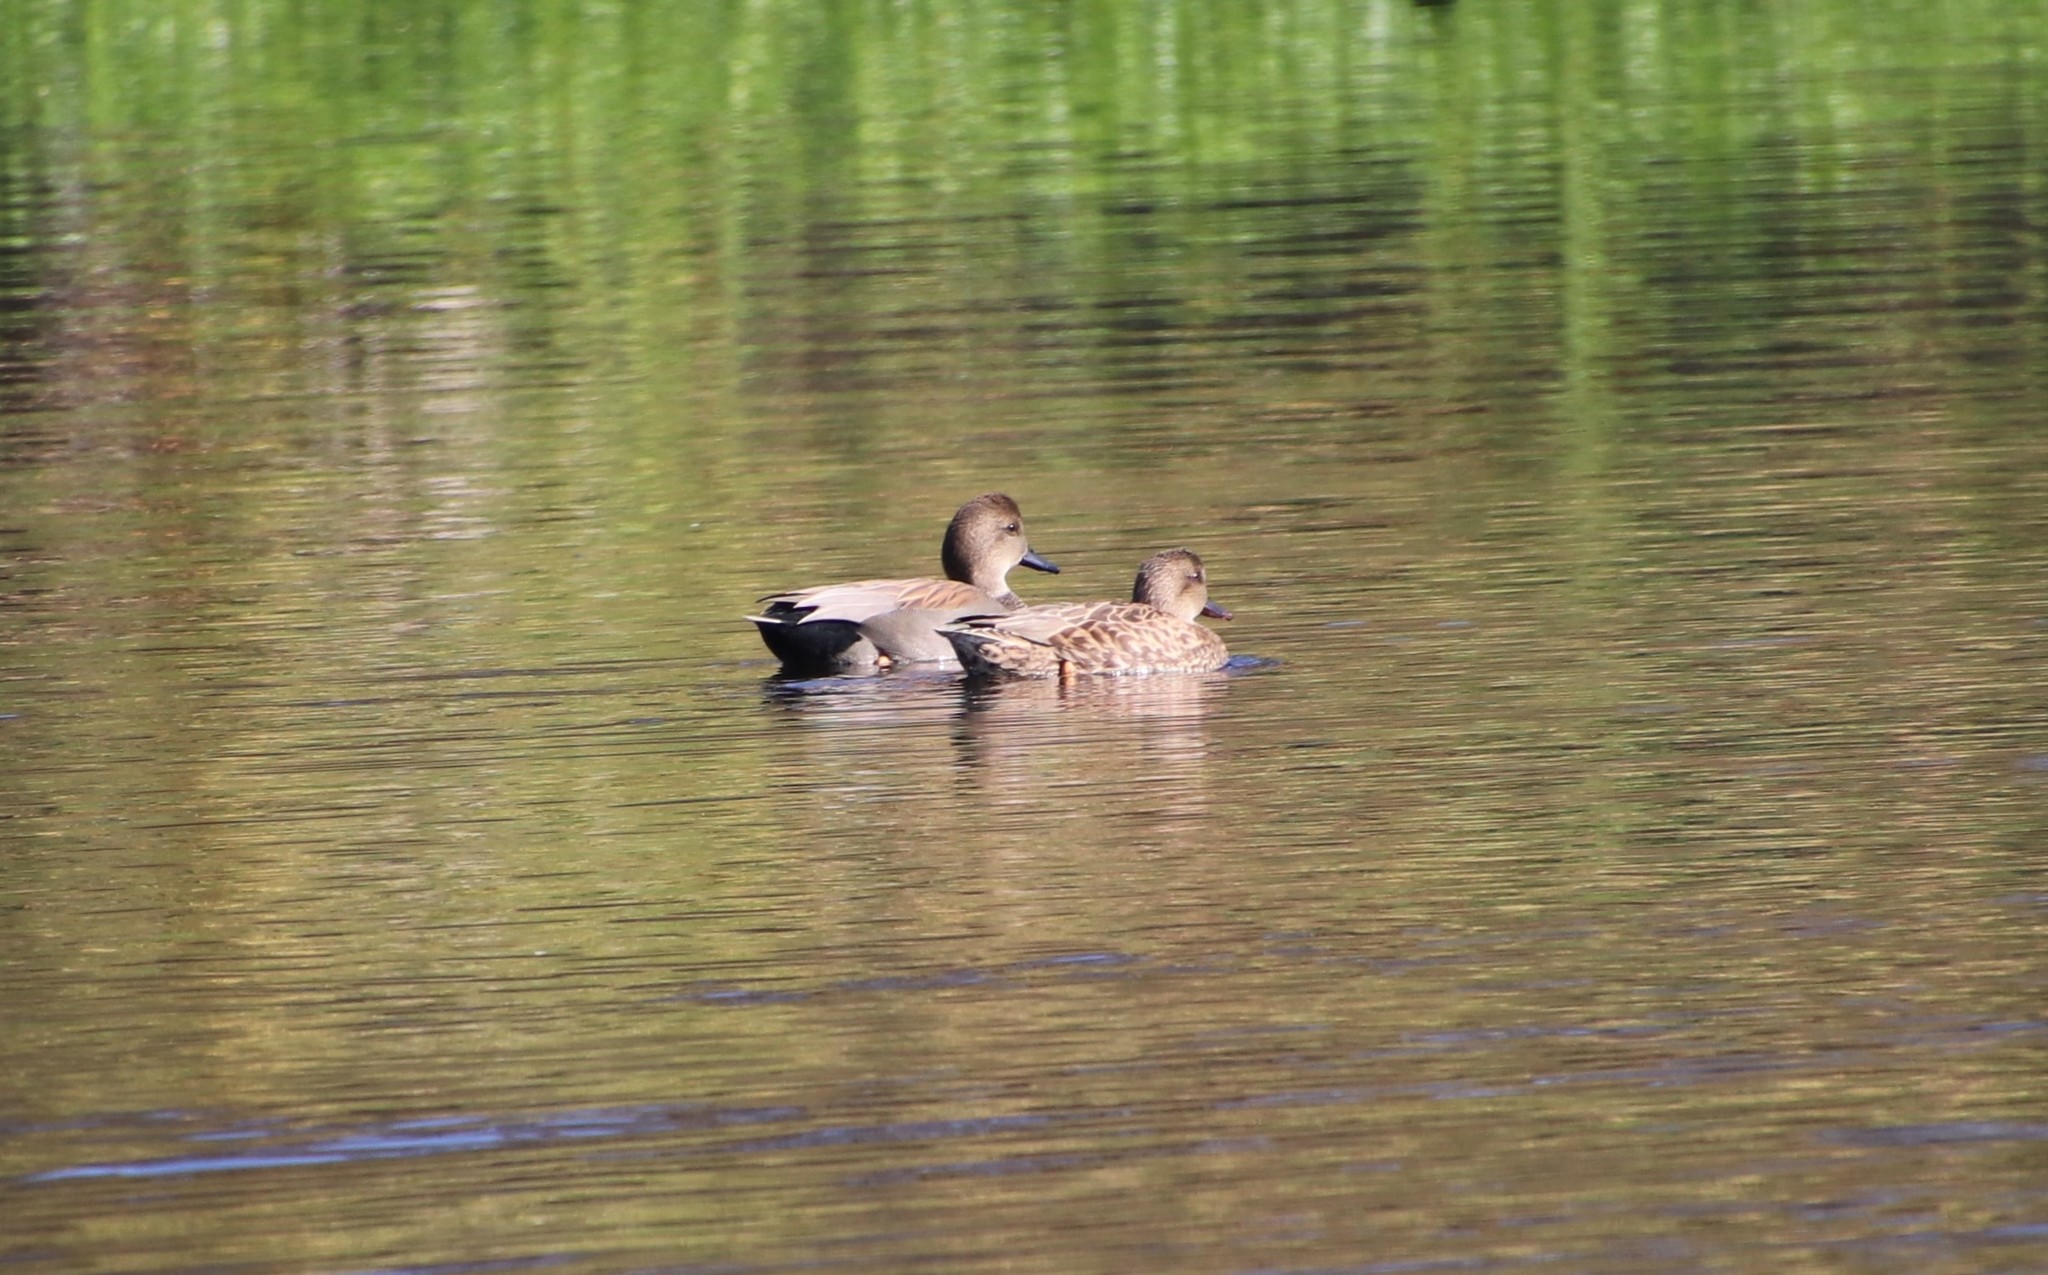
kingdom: Animalia
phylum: Chordata
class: Aves
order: Anseriformes
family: Anatidae
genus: Mareca
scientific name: Mareca strepera
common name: Gadwall
